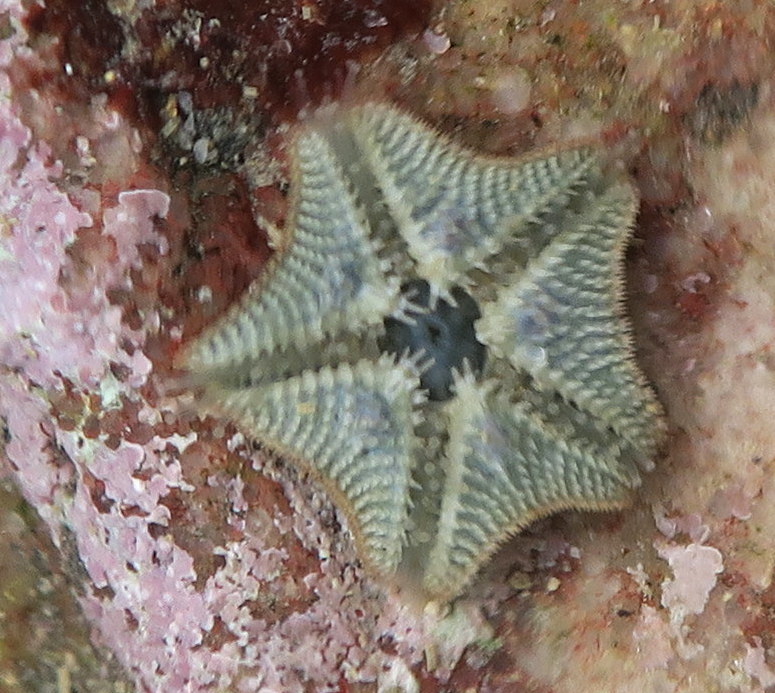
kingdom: Animalia
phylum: Echinodermata
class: Asteroidea
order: Valvatida
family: Asterinidae
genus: Parvulastra
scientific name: Parvulastra exigua
